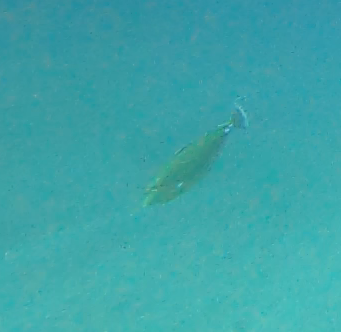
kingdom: Animalia
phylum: Chordata
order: Perciformes
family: Acanthuridae
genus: Naso
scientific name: Naso unicornis
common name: Bluespine unicornfish
